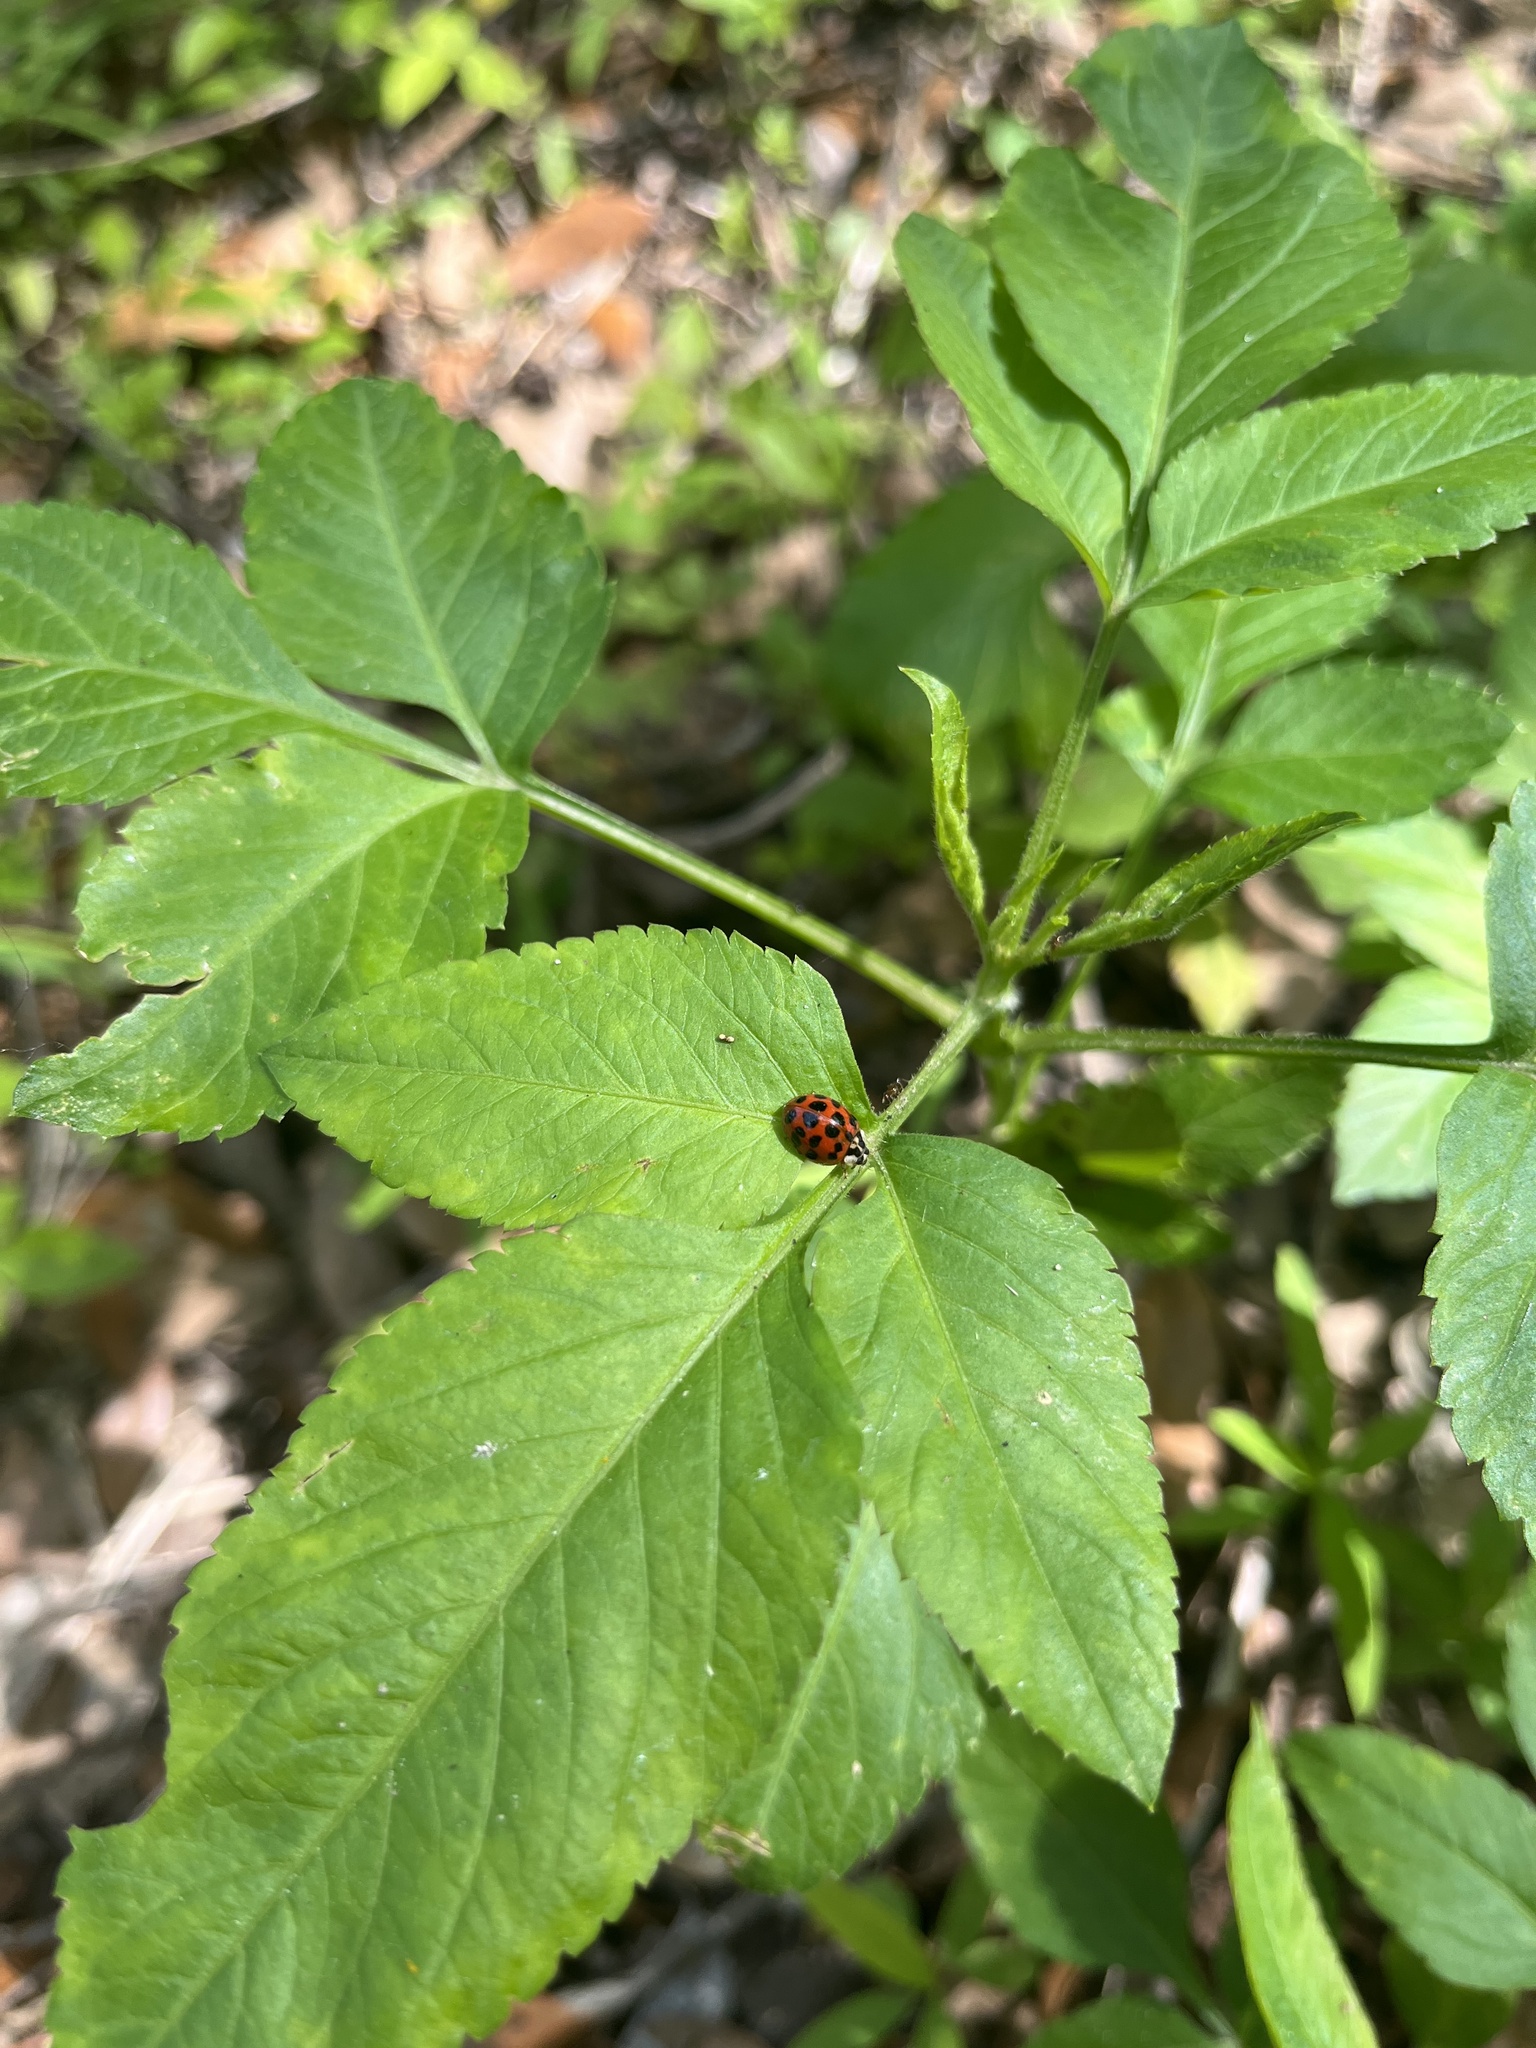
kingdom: Animalia
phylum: Arthropoda
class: Insecta
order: Coleoptera
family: Coccinellidae
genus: Harmonia
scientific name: Harmonia axyridis
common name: Harlequin ladybird
